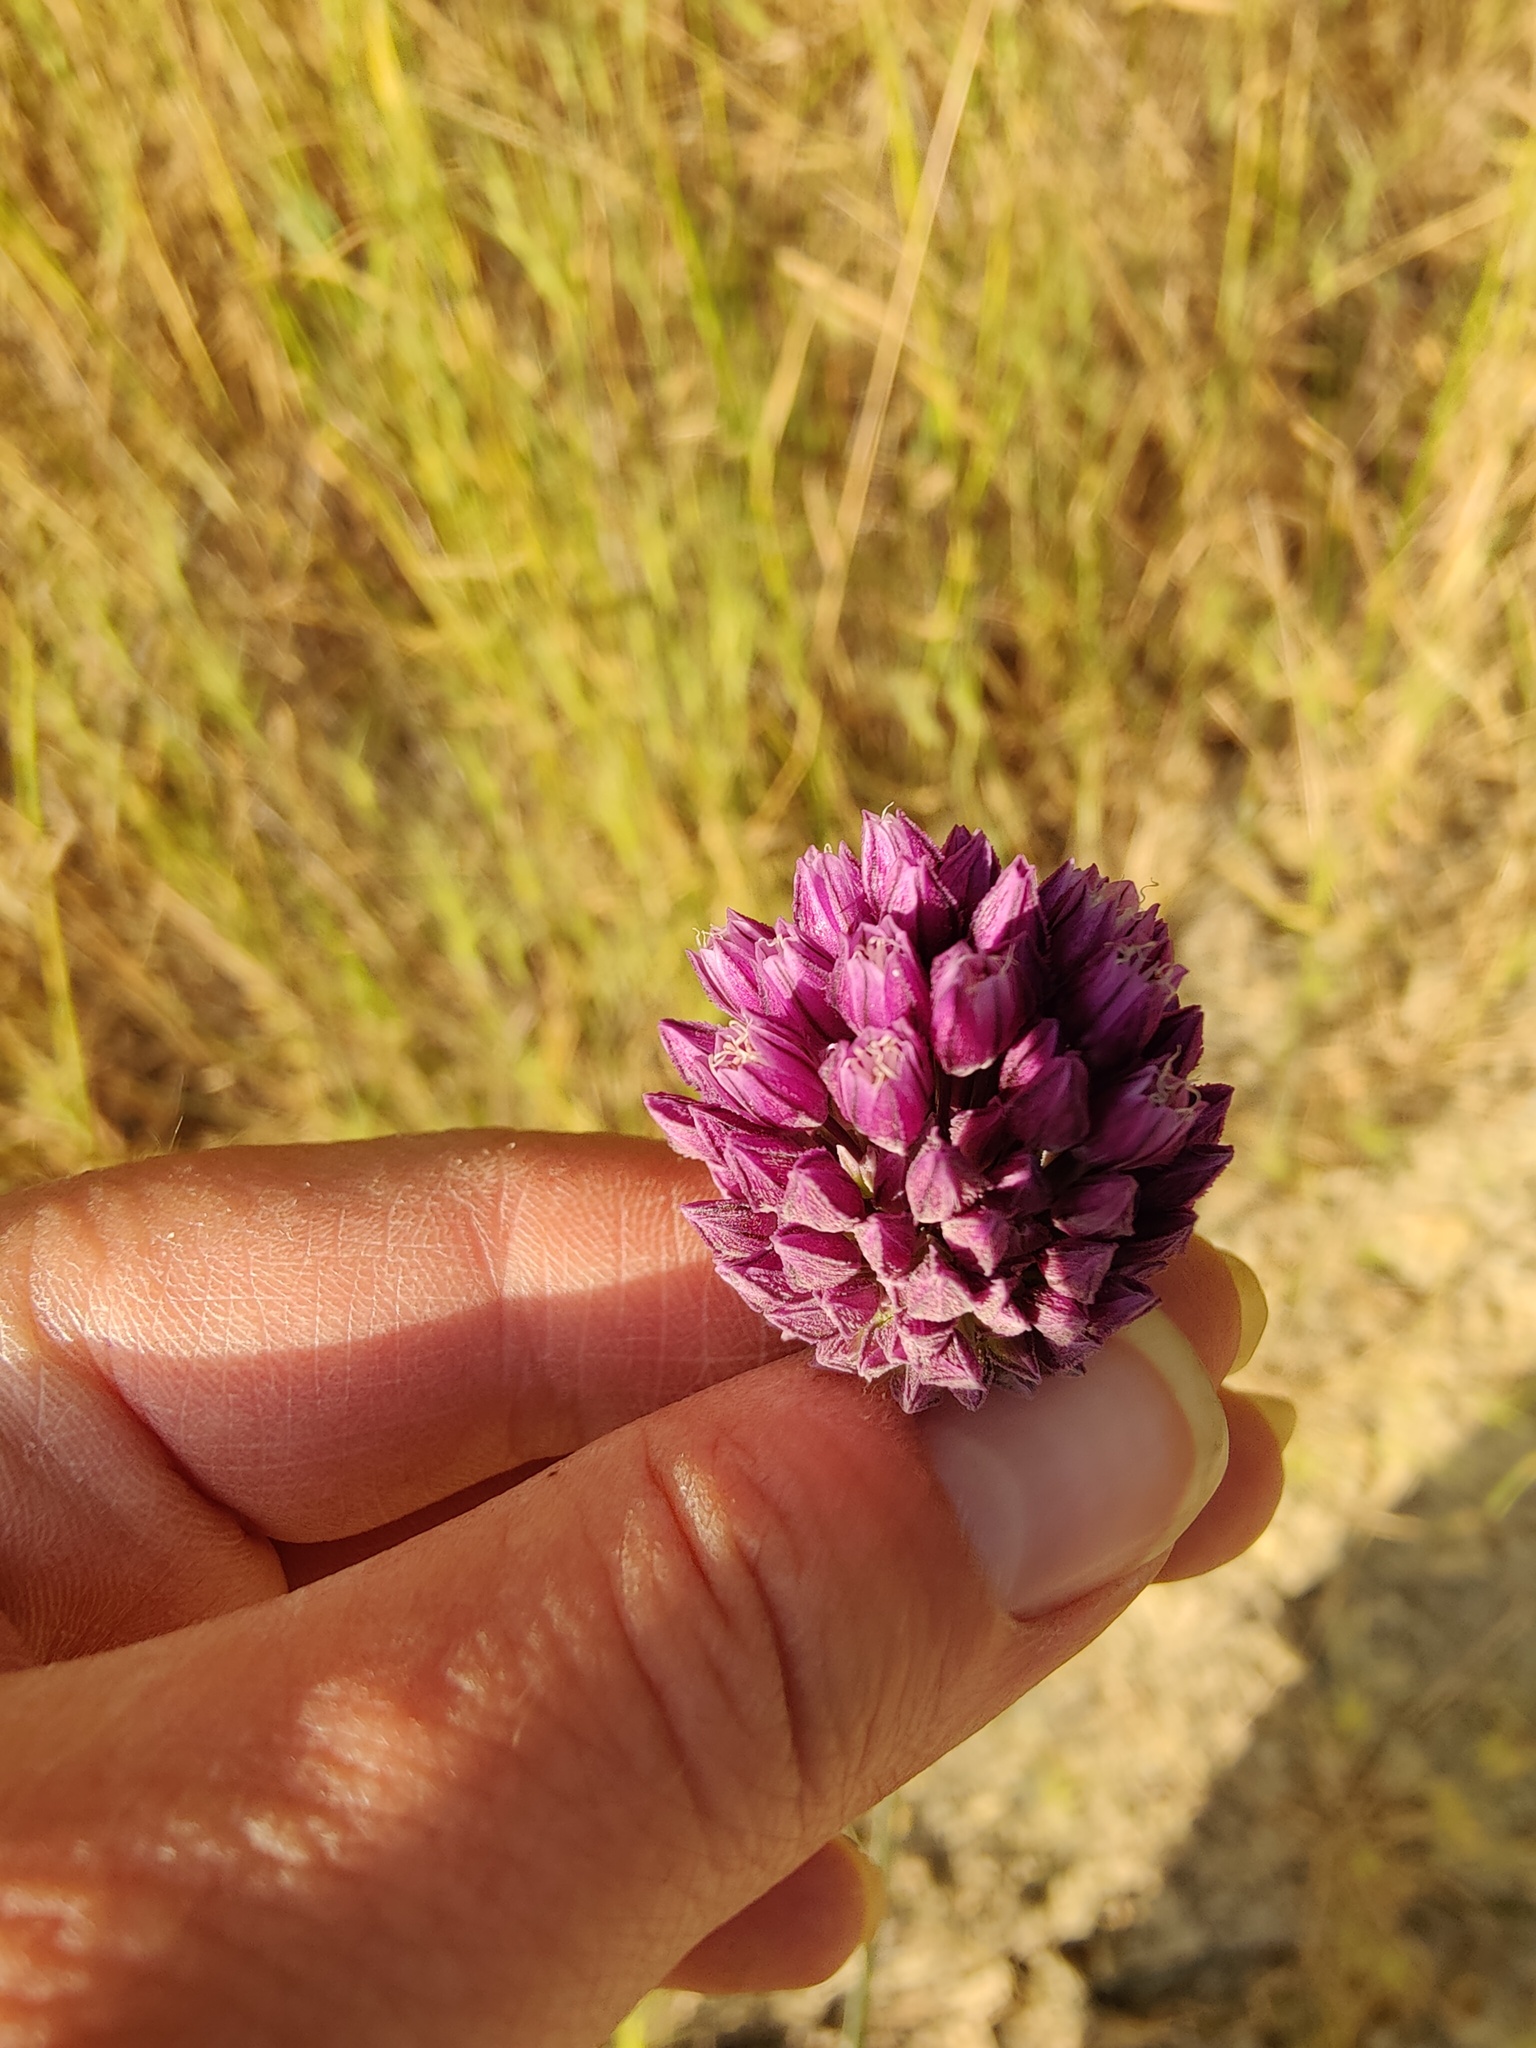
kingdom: Plantae
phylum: Tracheophyta
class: Liliopsida
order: Asparagales
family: Amaryllidaceae
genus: Allium
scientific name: Allium rotundum
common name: Sand leek
